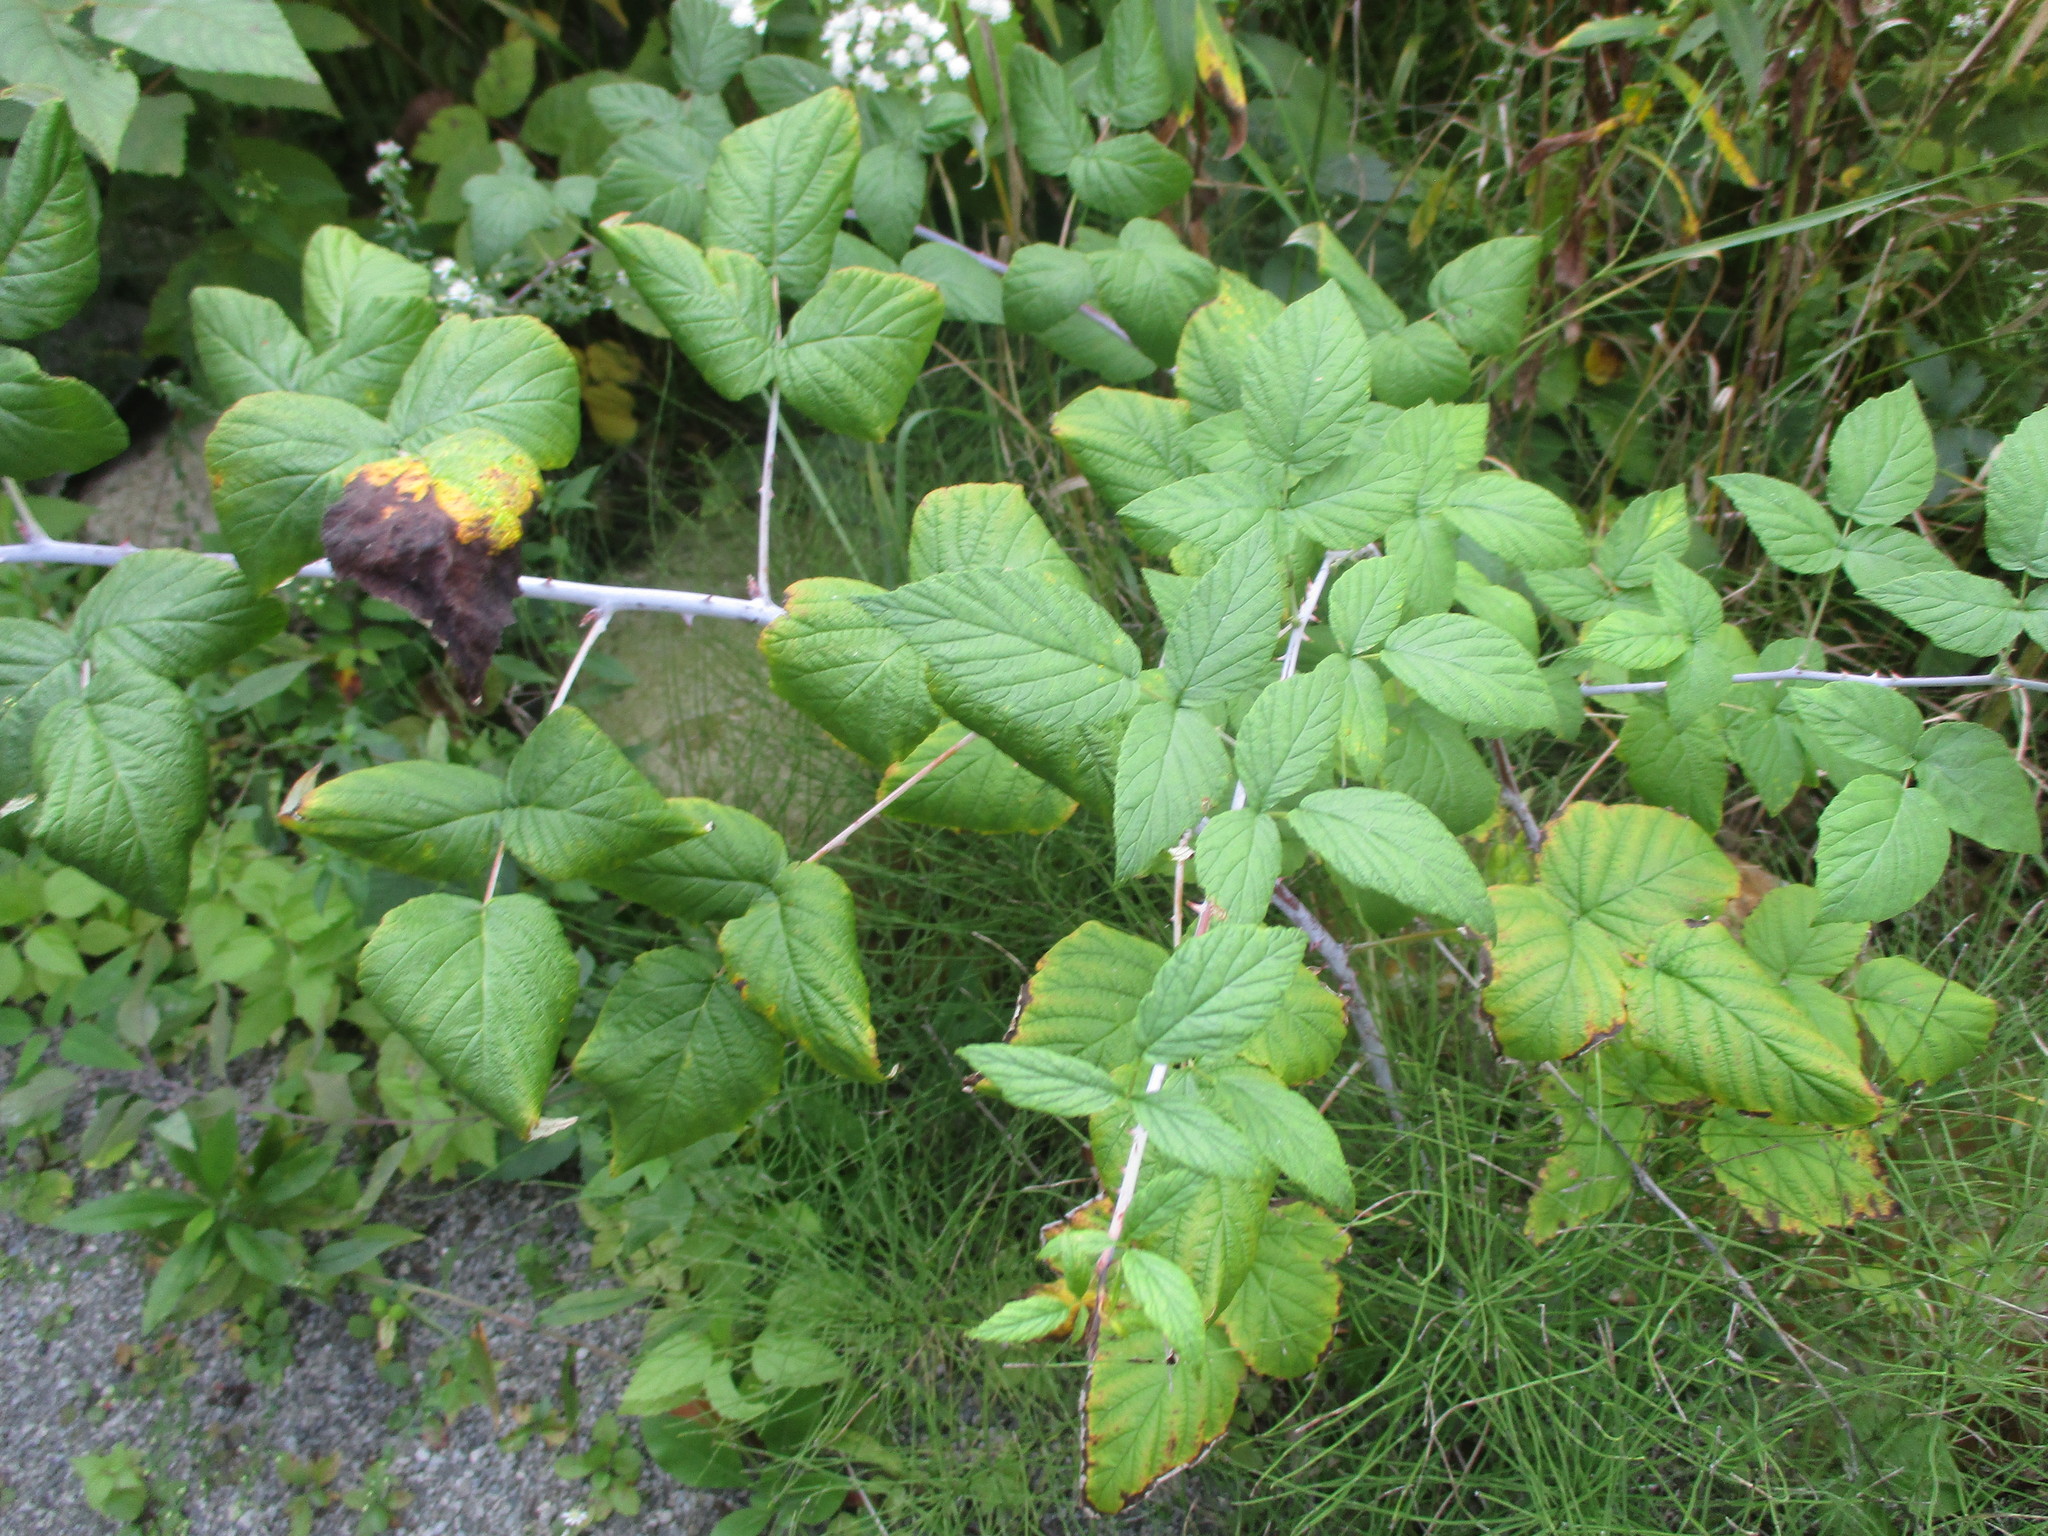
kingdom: Plantae
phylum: Tracheophyta
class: Magnoliopsida
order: Rosales
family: Rosaceae
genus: Rubus
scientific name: Rubus occidentalis
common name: Black raspberry
